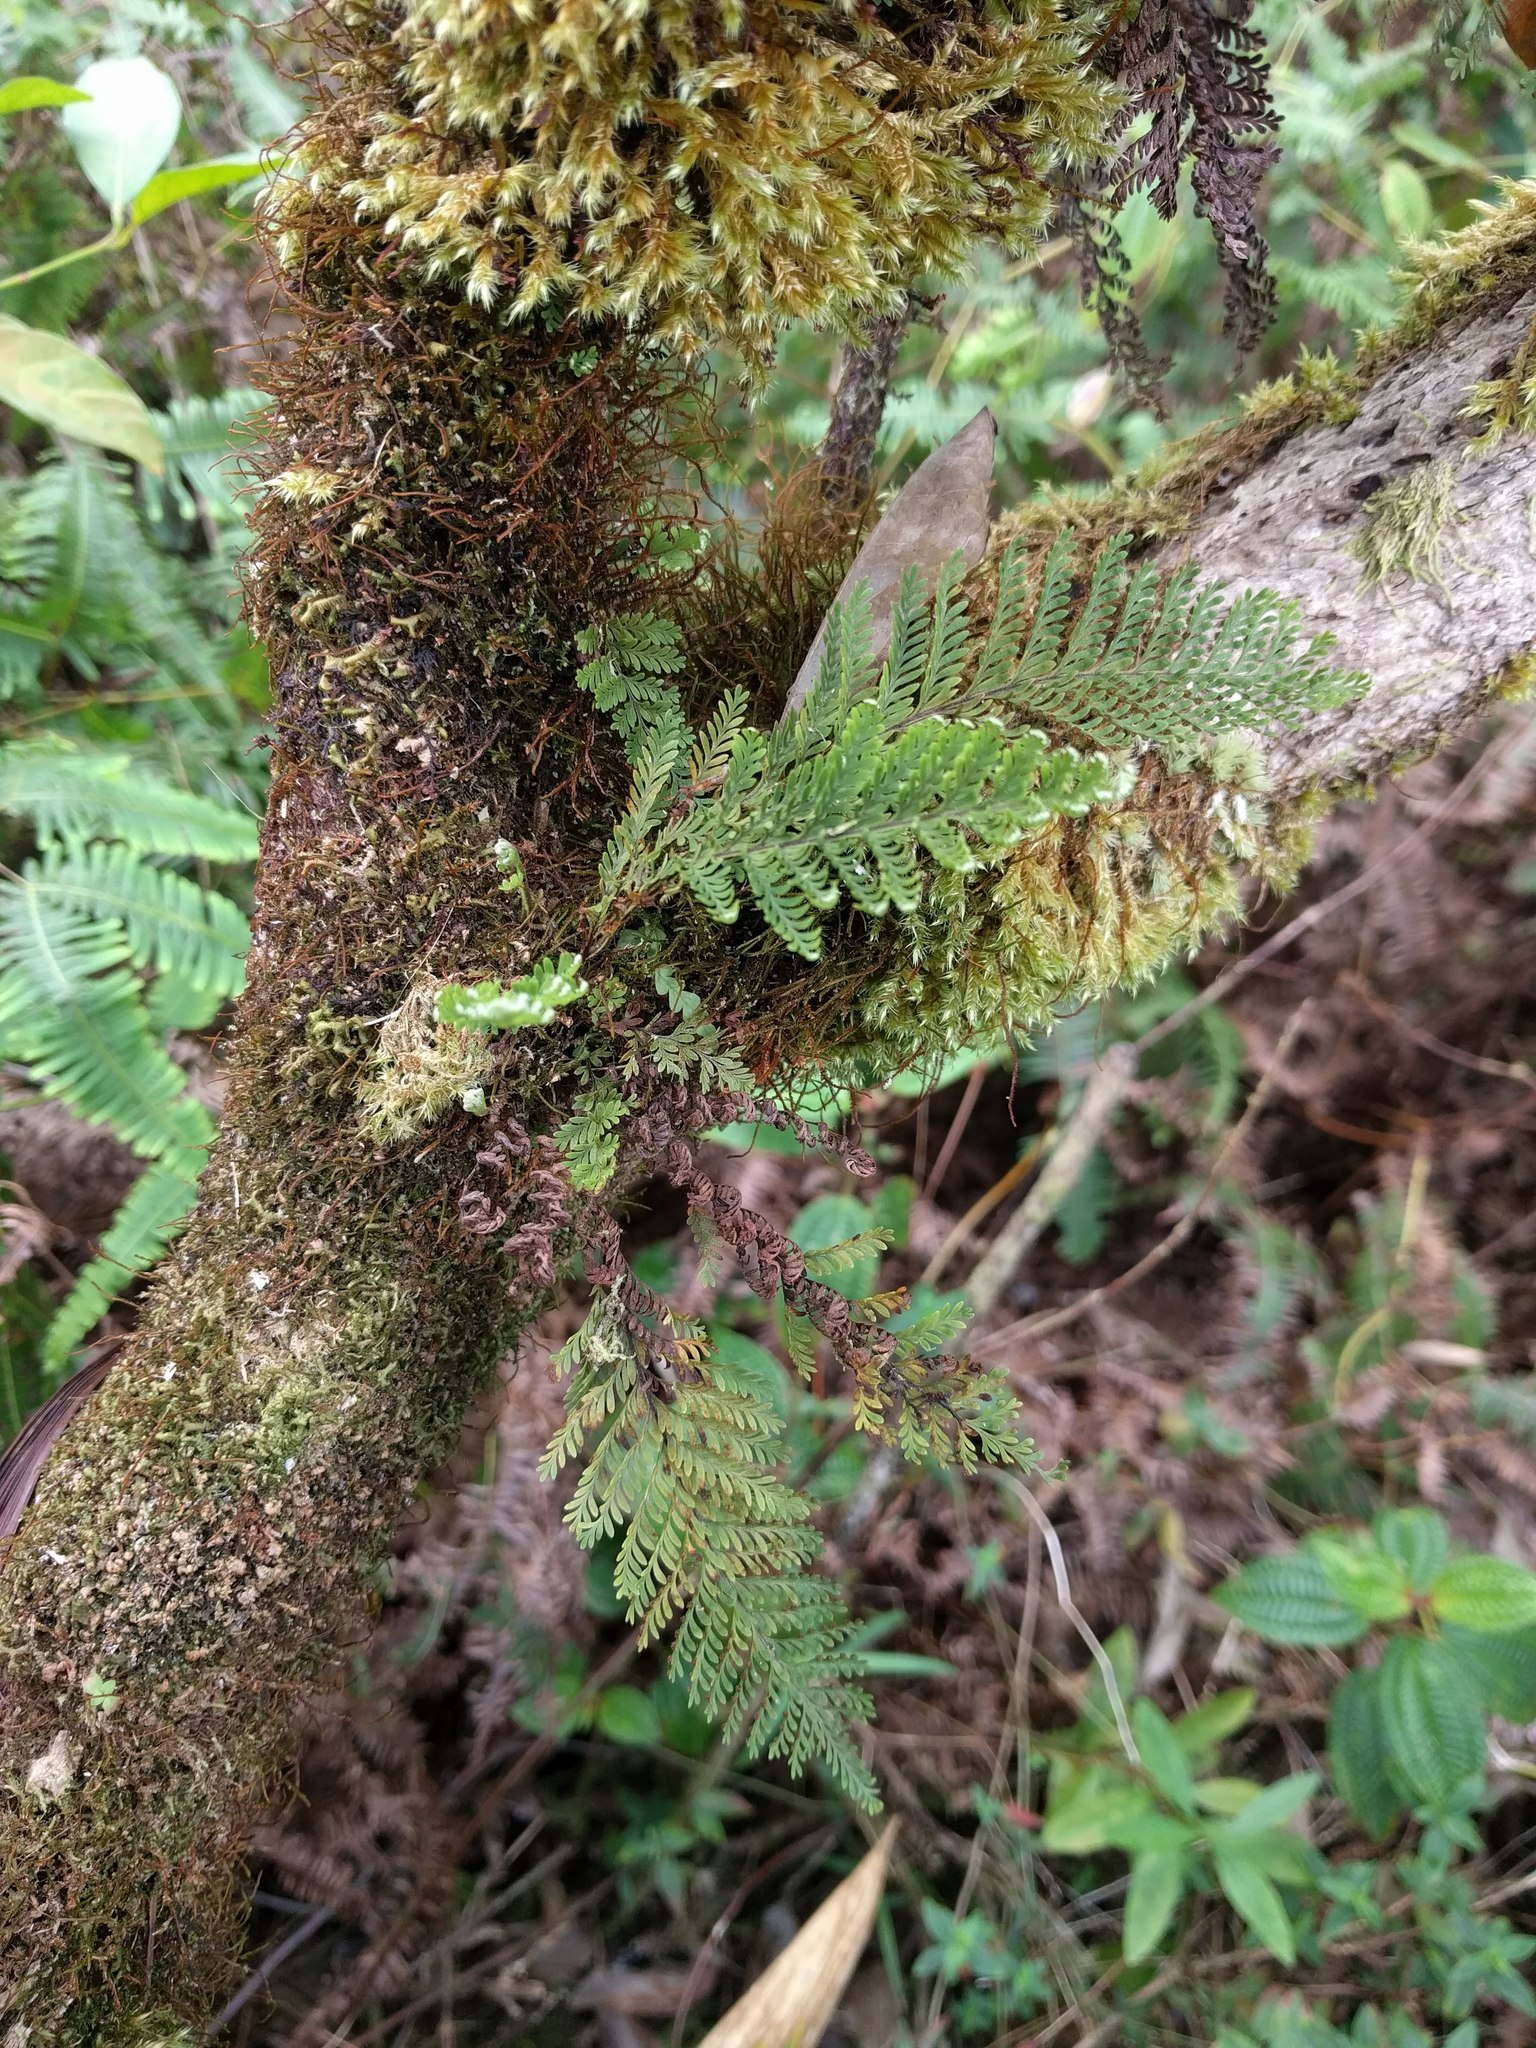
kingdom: Plantae
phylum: Tracheophyta
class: Polypodiopsida
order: Polypodiales
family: Polypodiaceae
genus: Adenophorus
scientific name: Adenophorus tamariscinus
